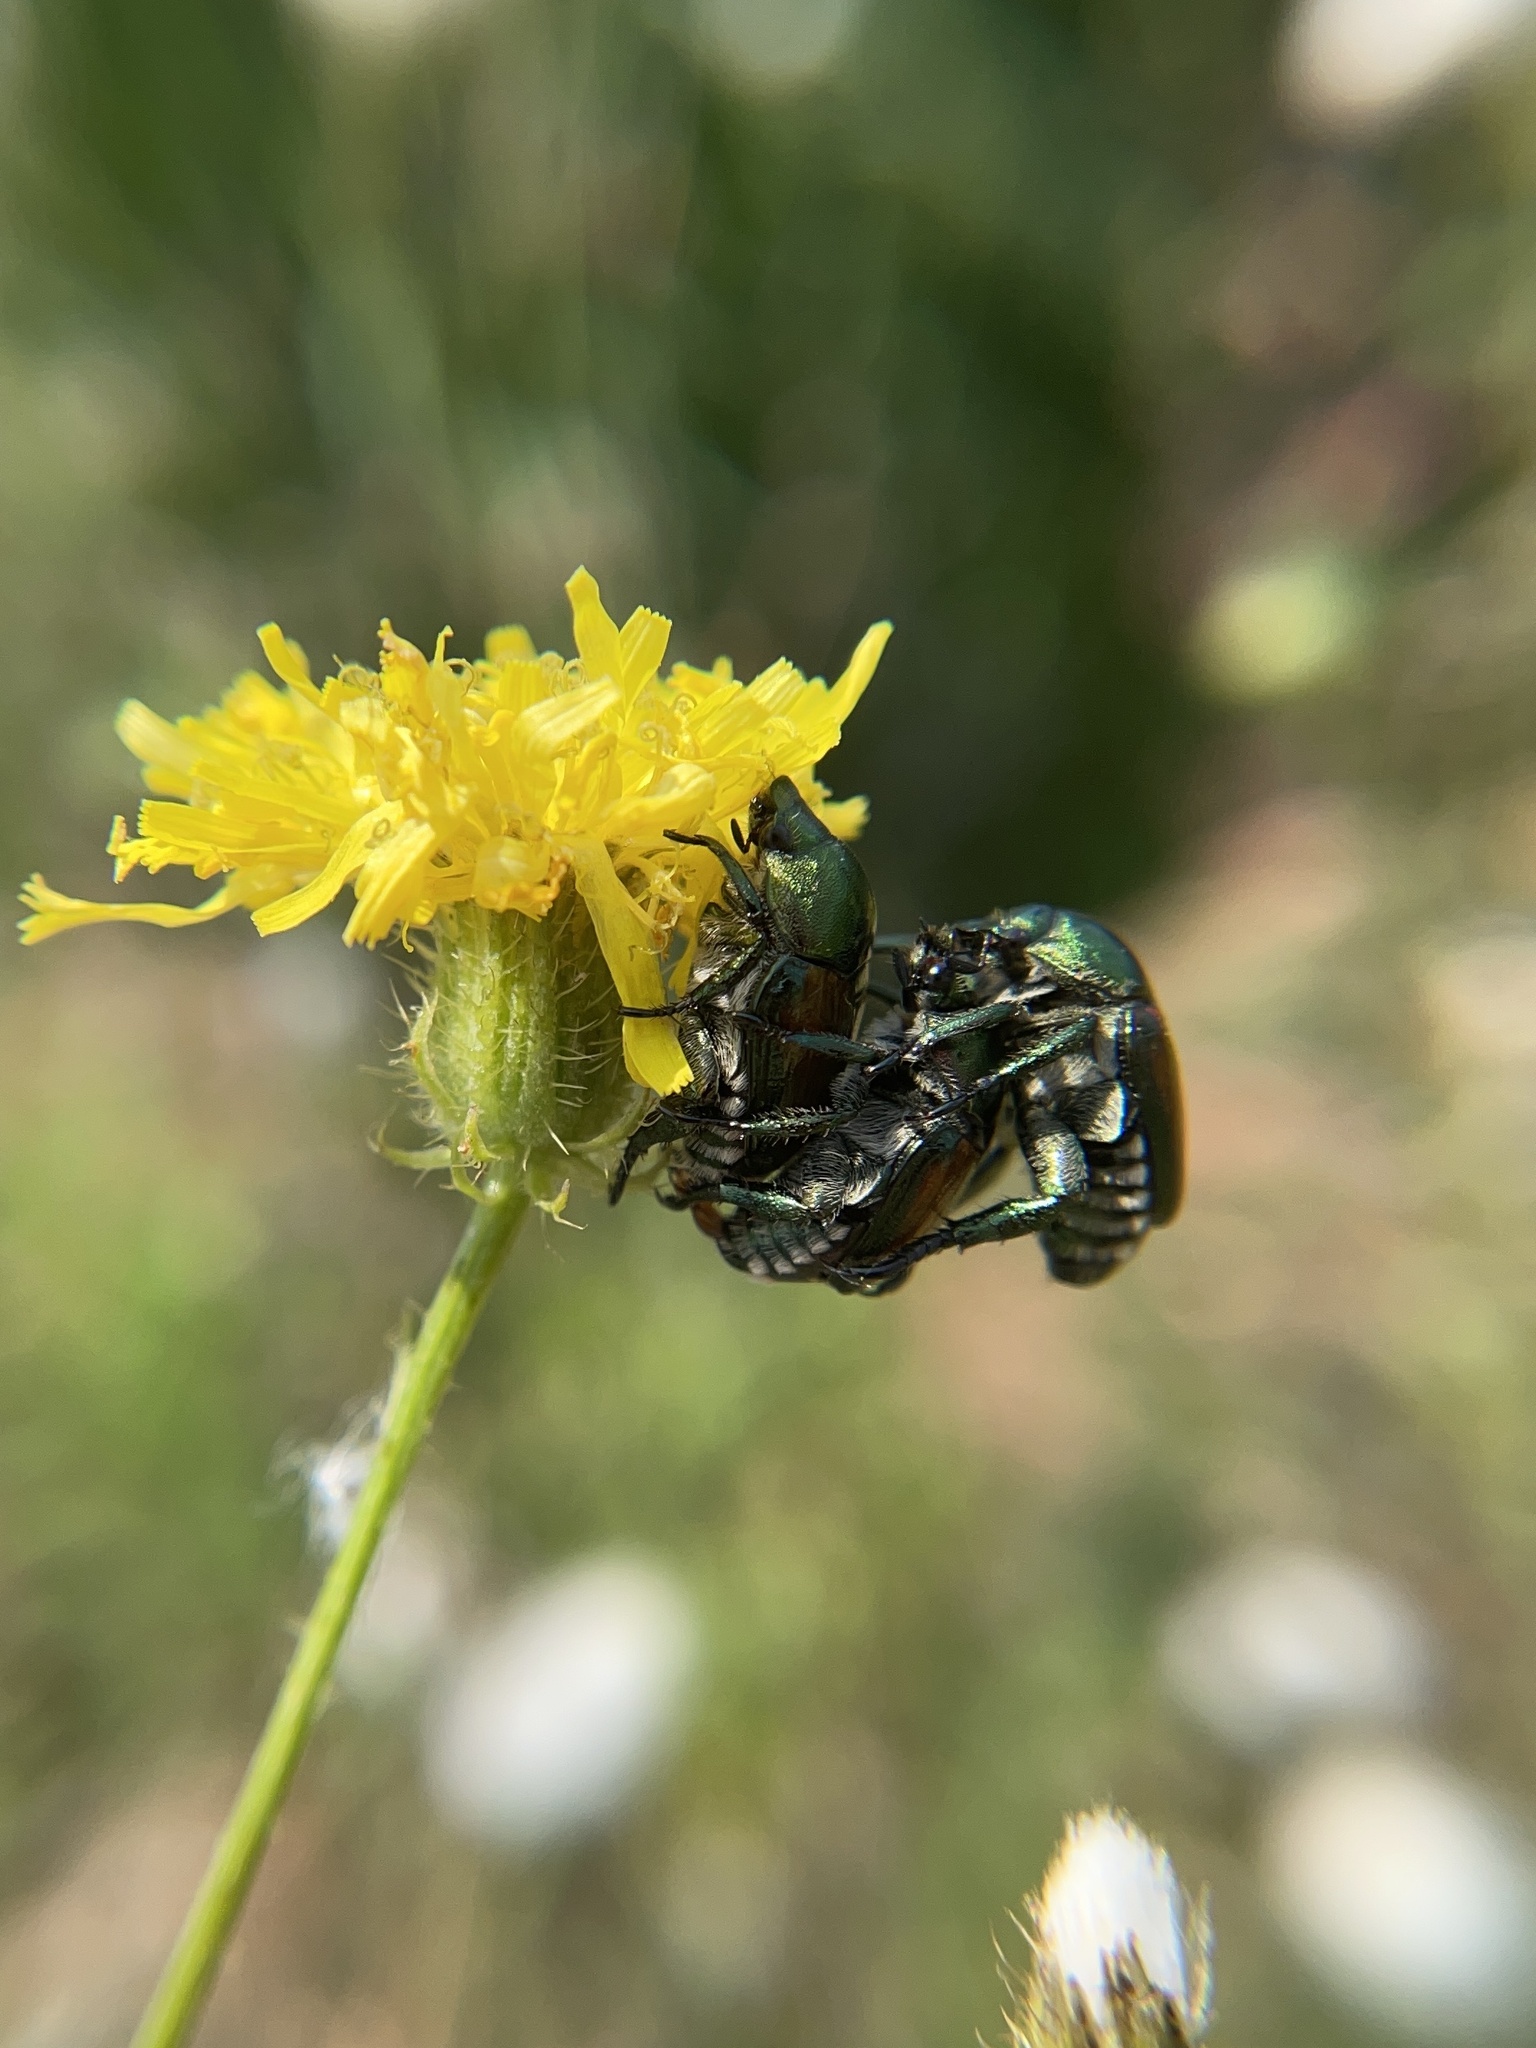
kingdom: Animalia
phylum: Arthropoda
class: Insecta
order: Coleoptera
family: Scarabaeidae
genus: Popillia
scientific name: Popillia japonica
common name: Japanese beetle
